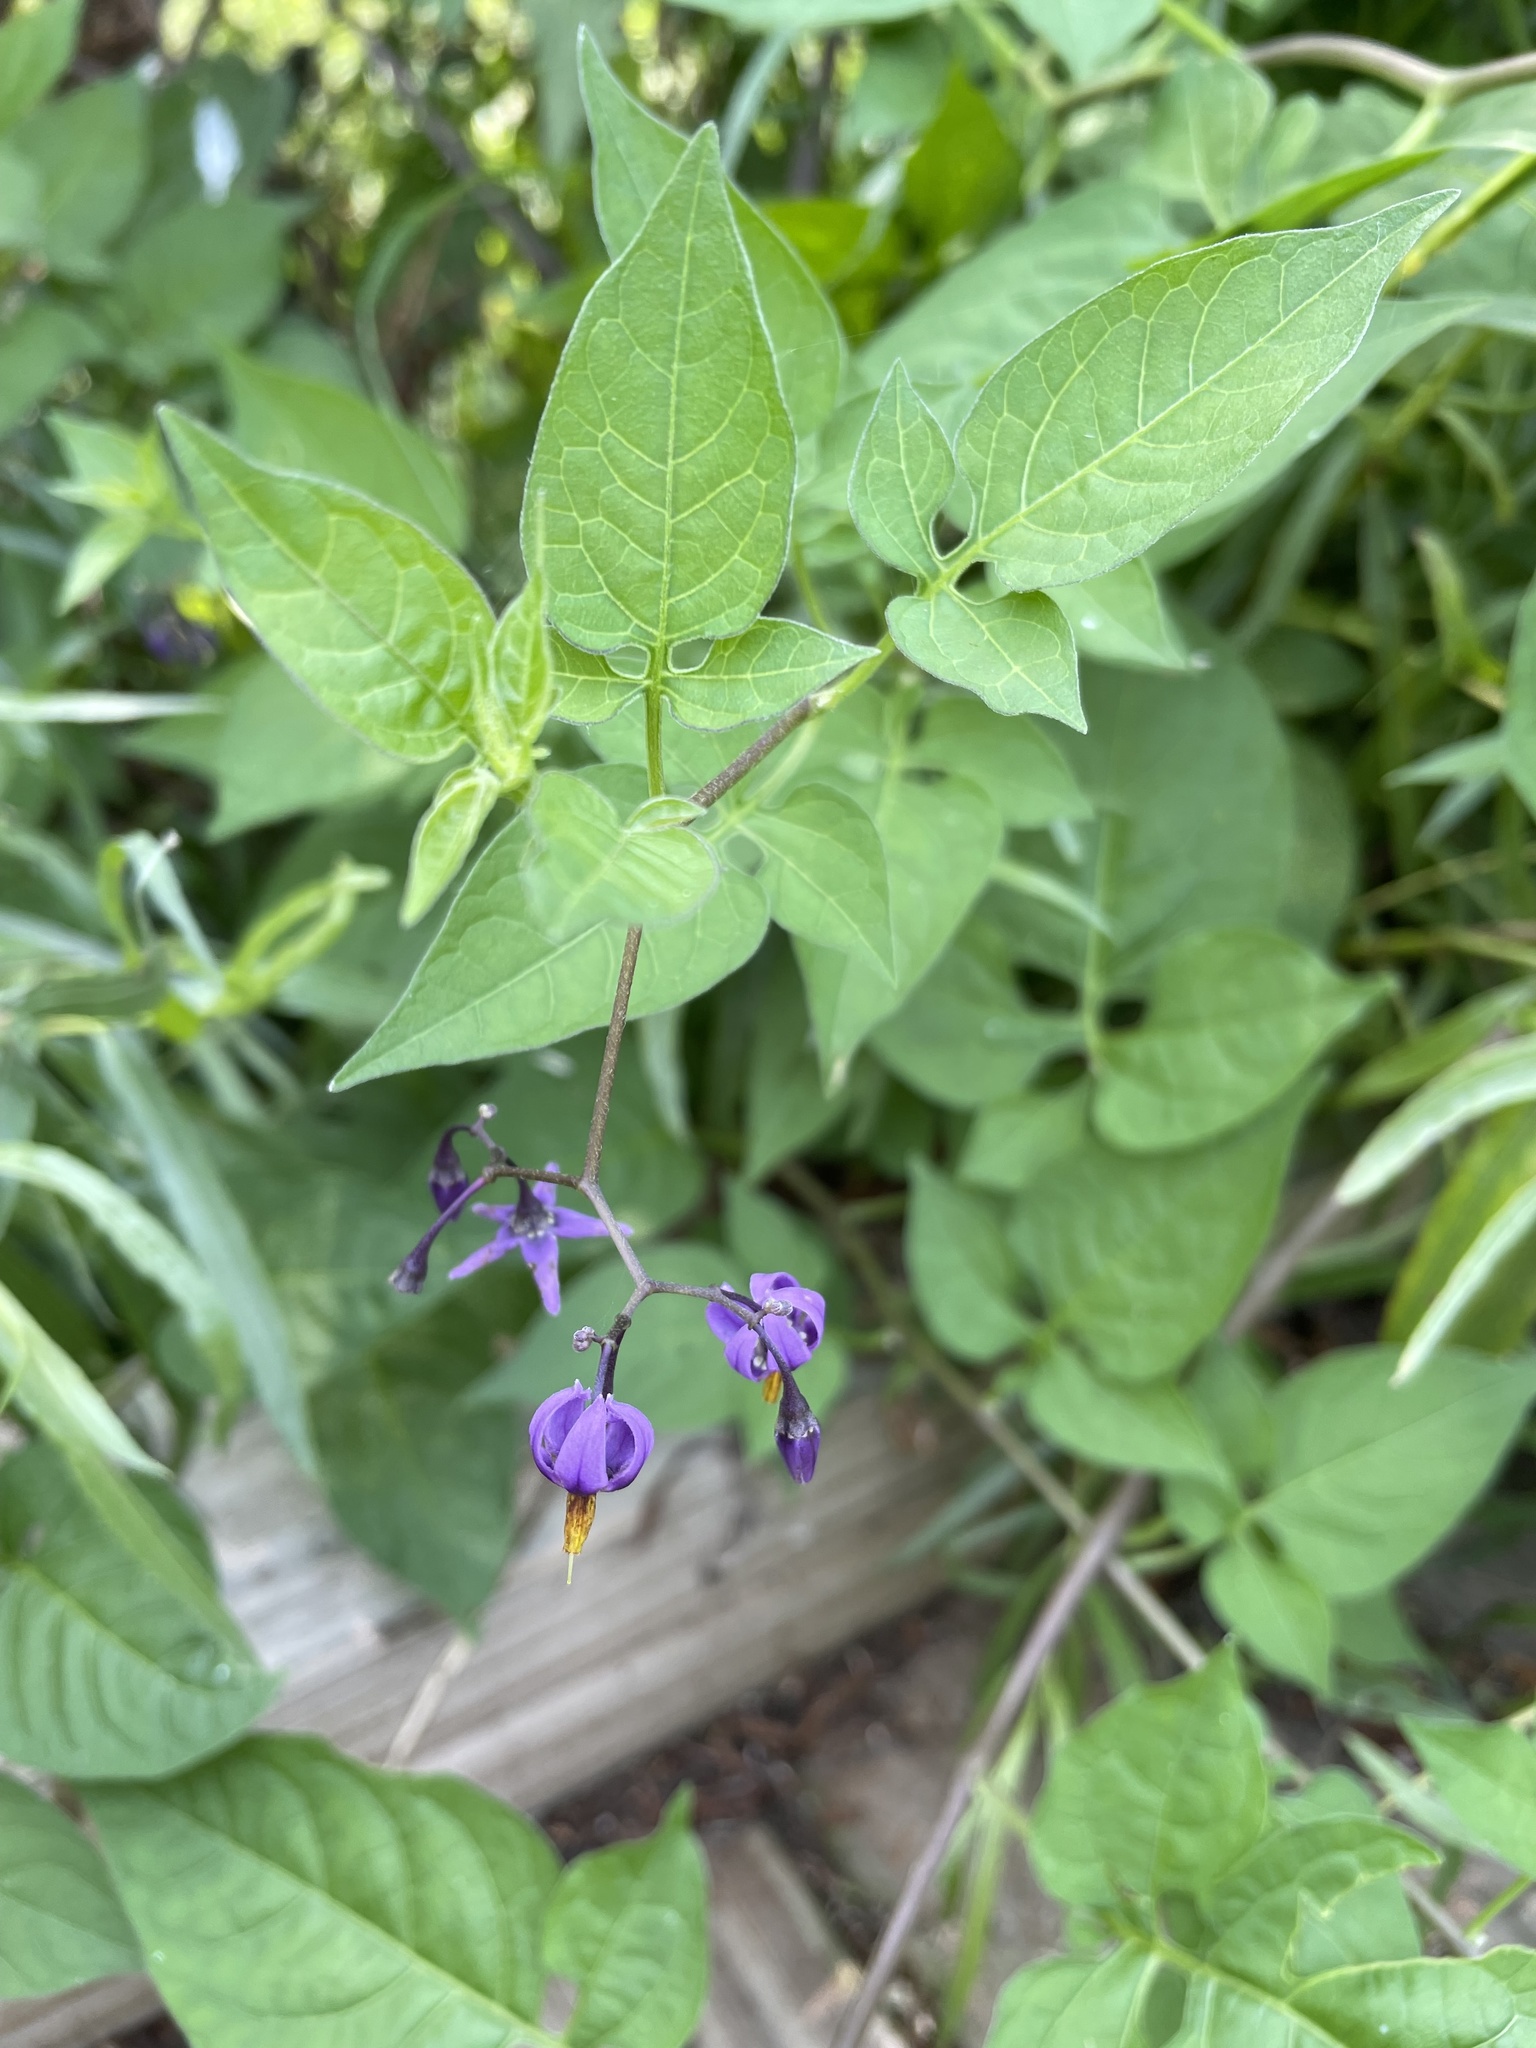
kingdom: Plantae
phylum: Tracheophyta
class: Magnoliopsida
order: Solanales
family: Solanaceae
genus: Solanum
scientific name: Solanum dulcamara
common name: Climbing nightshade
